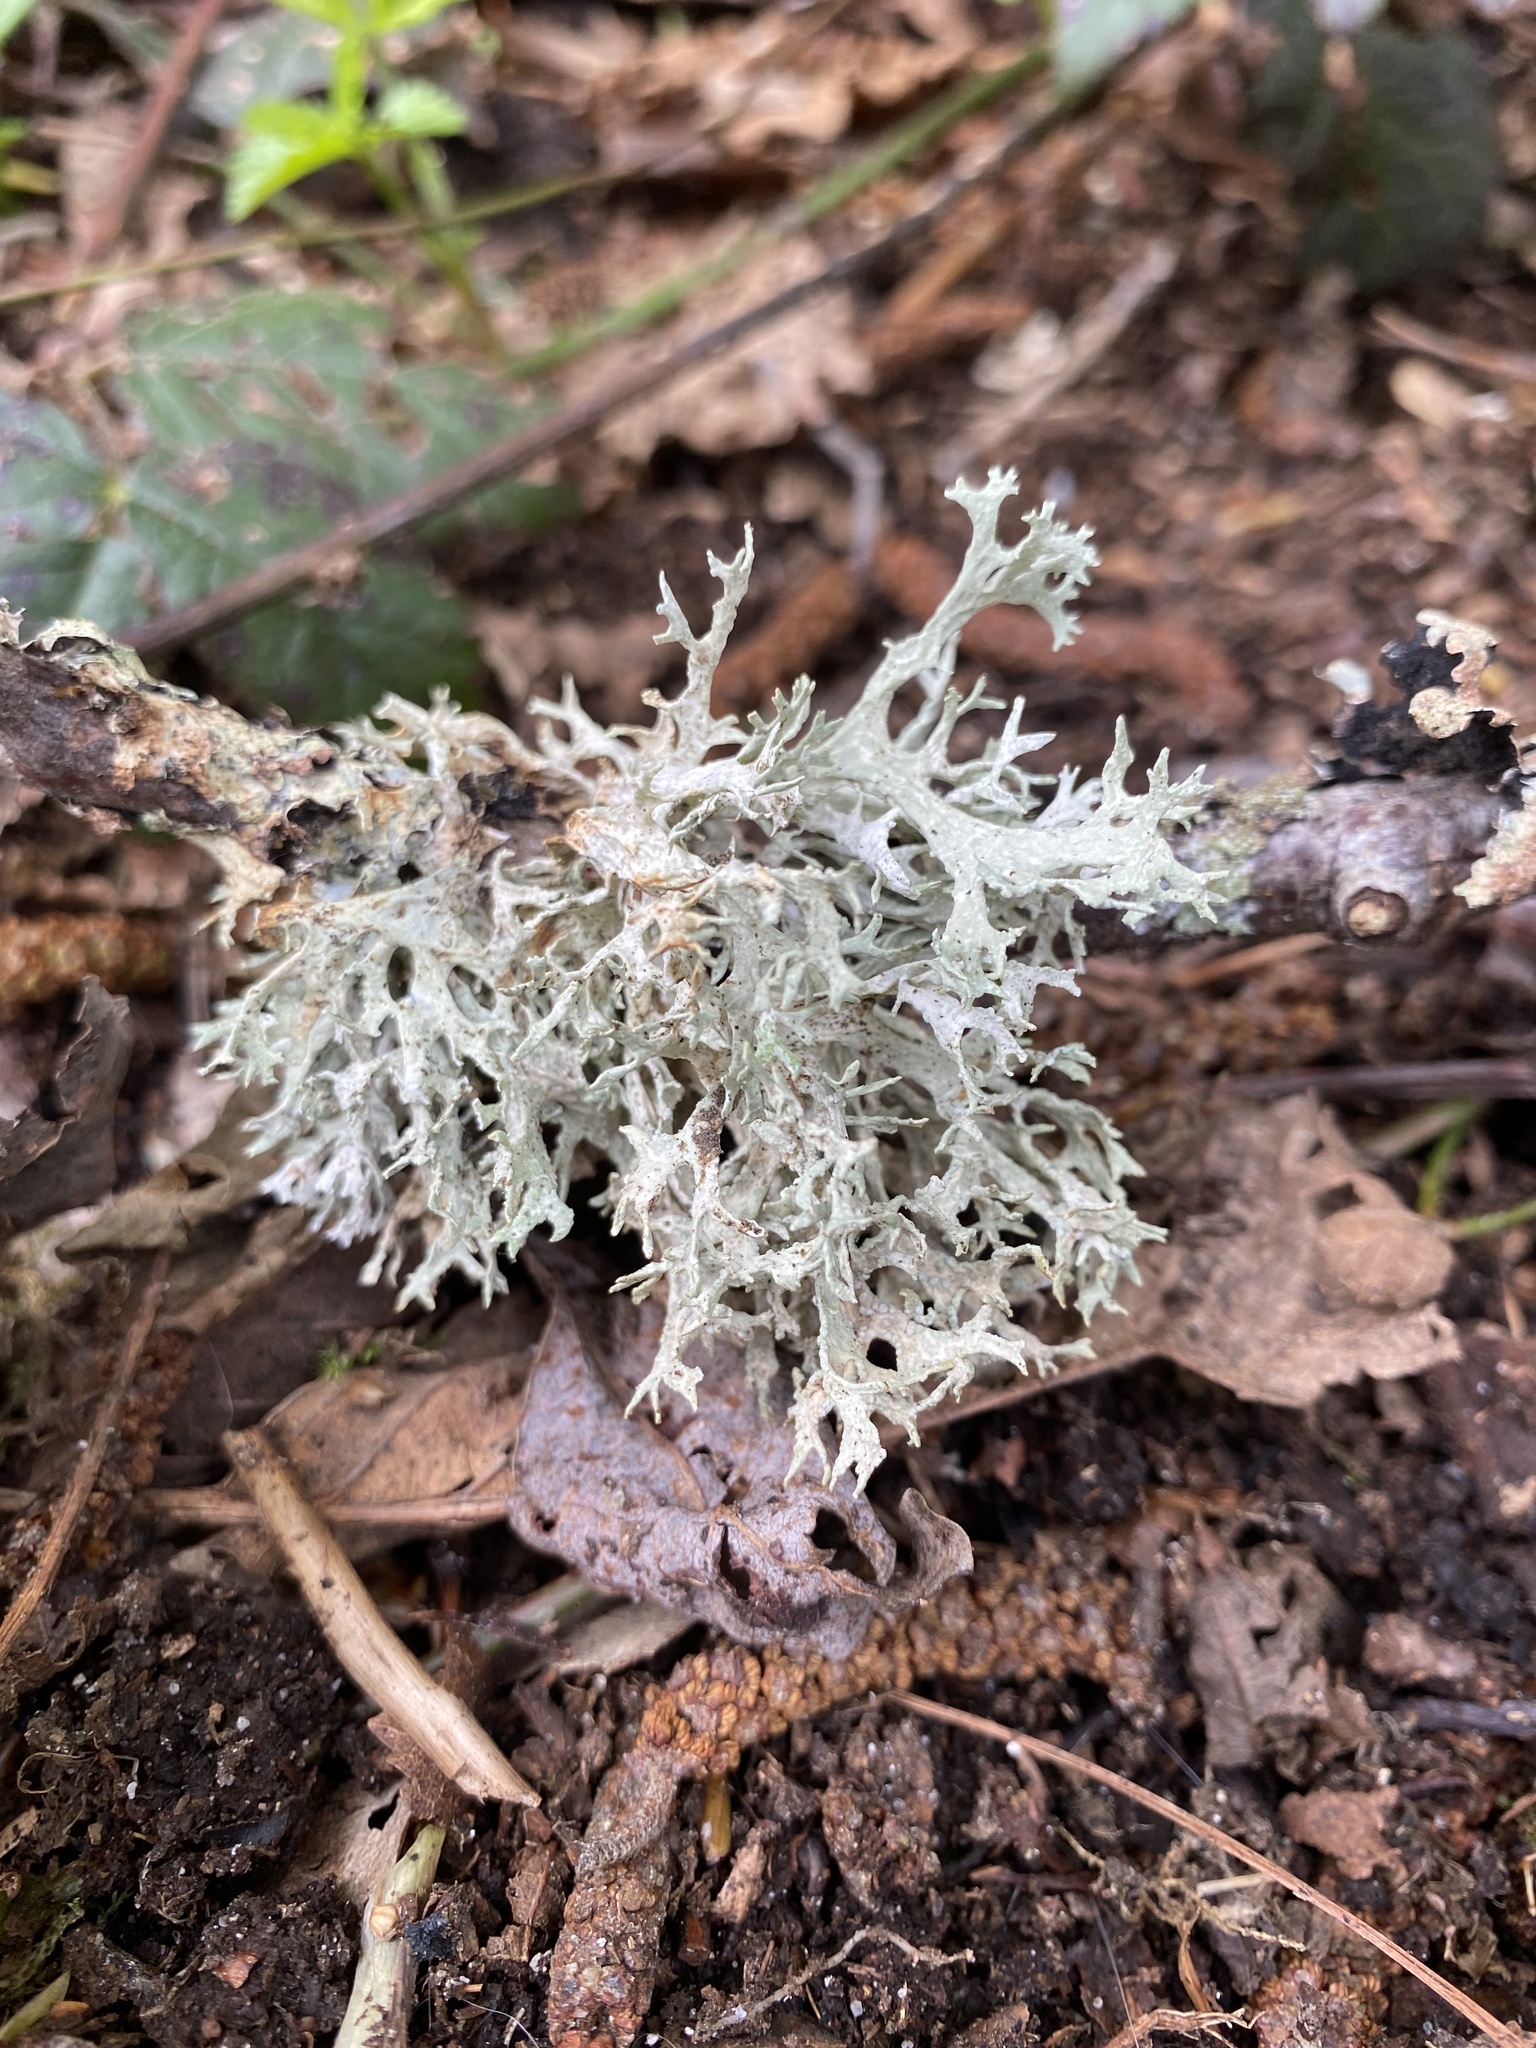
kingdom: Fungi
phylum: Ascomycota
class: Lecanoromycetes
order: Lecanorales
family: Parmeliaceae
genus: Evernia
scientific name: Evernia prunastri
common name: Oak moss
